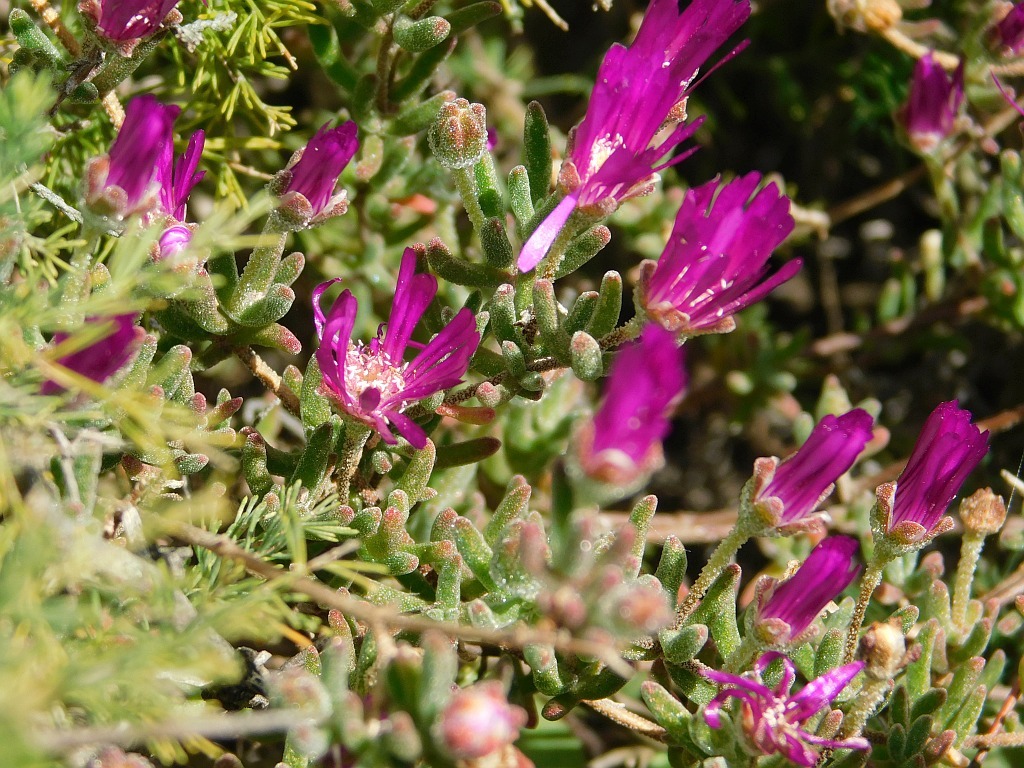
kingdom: Plantae
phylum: Tracheophyta
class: Magnoliopsida
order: Caryophyllales
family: Aizoaceae
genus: Drosanthemum
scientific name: Drosanthemum ambiguum
